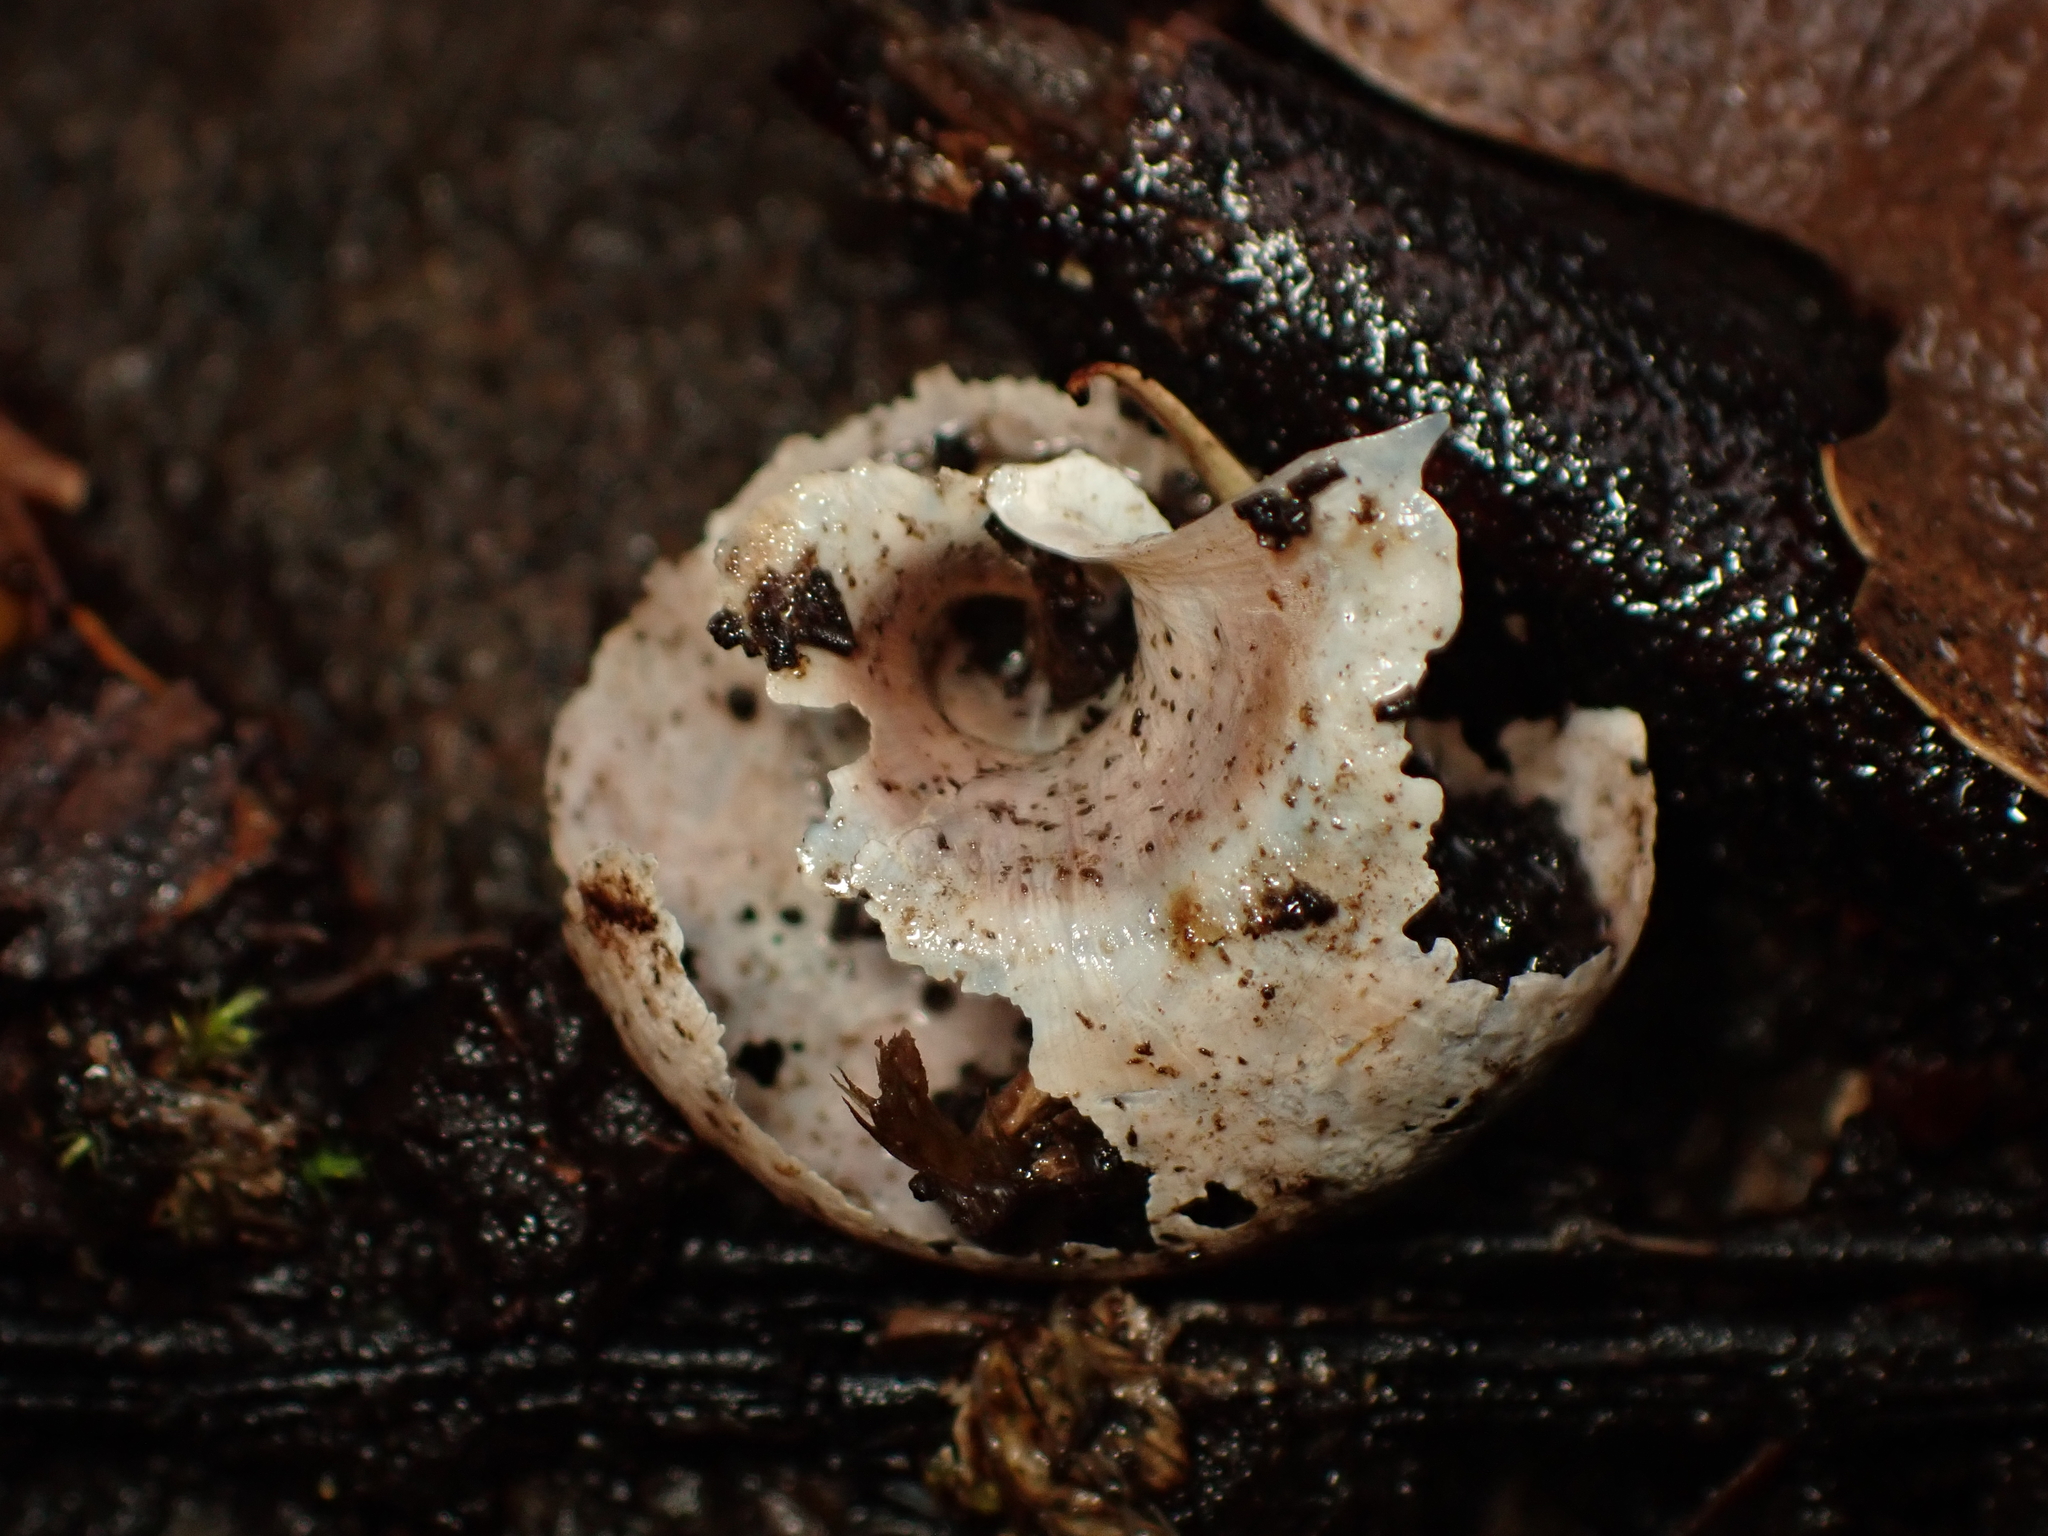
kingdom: Animalia
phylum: Mollusca
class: Gastropoda
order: Stylommatophora
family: Rhytididae
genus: Rhytida
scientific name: Rhytida greenwoodi
